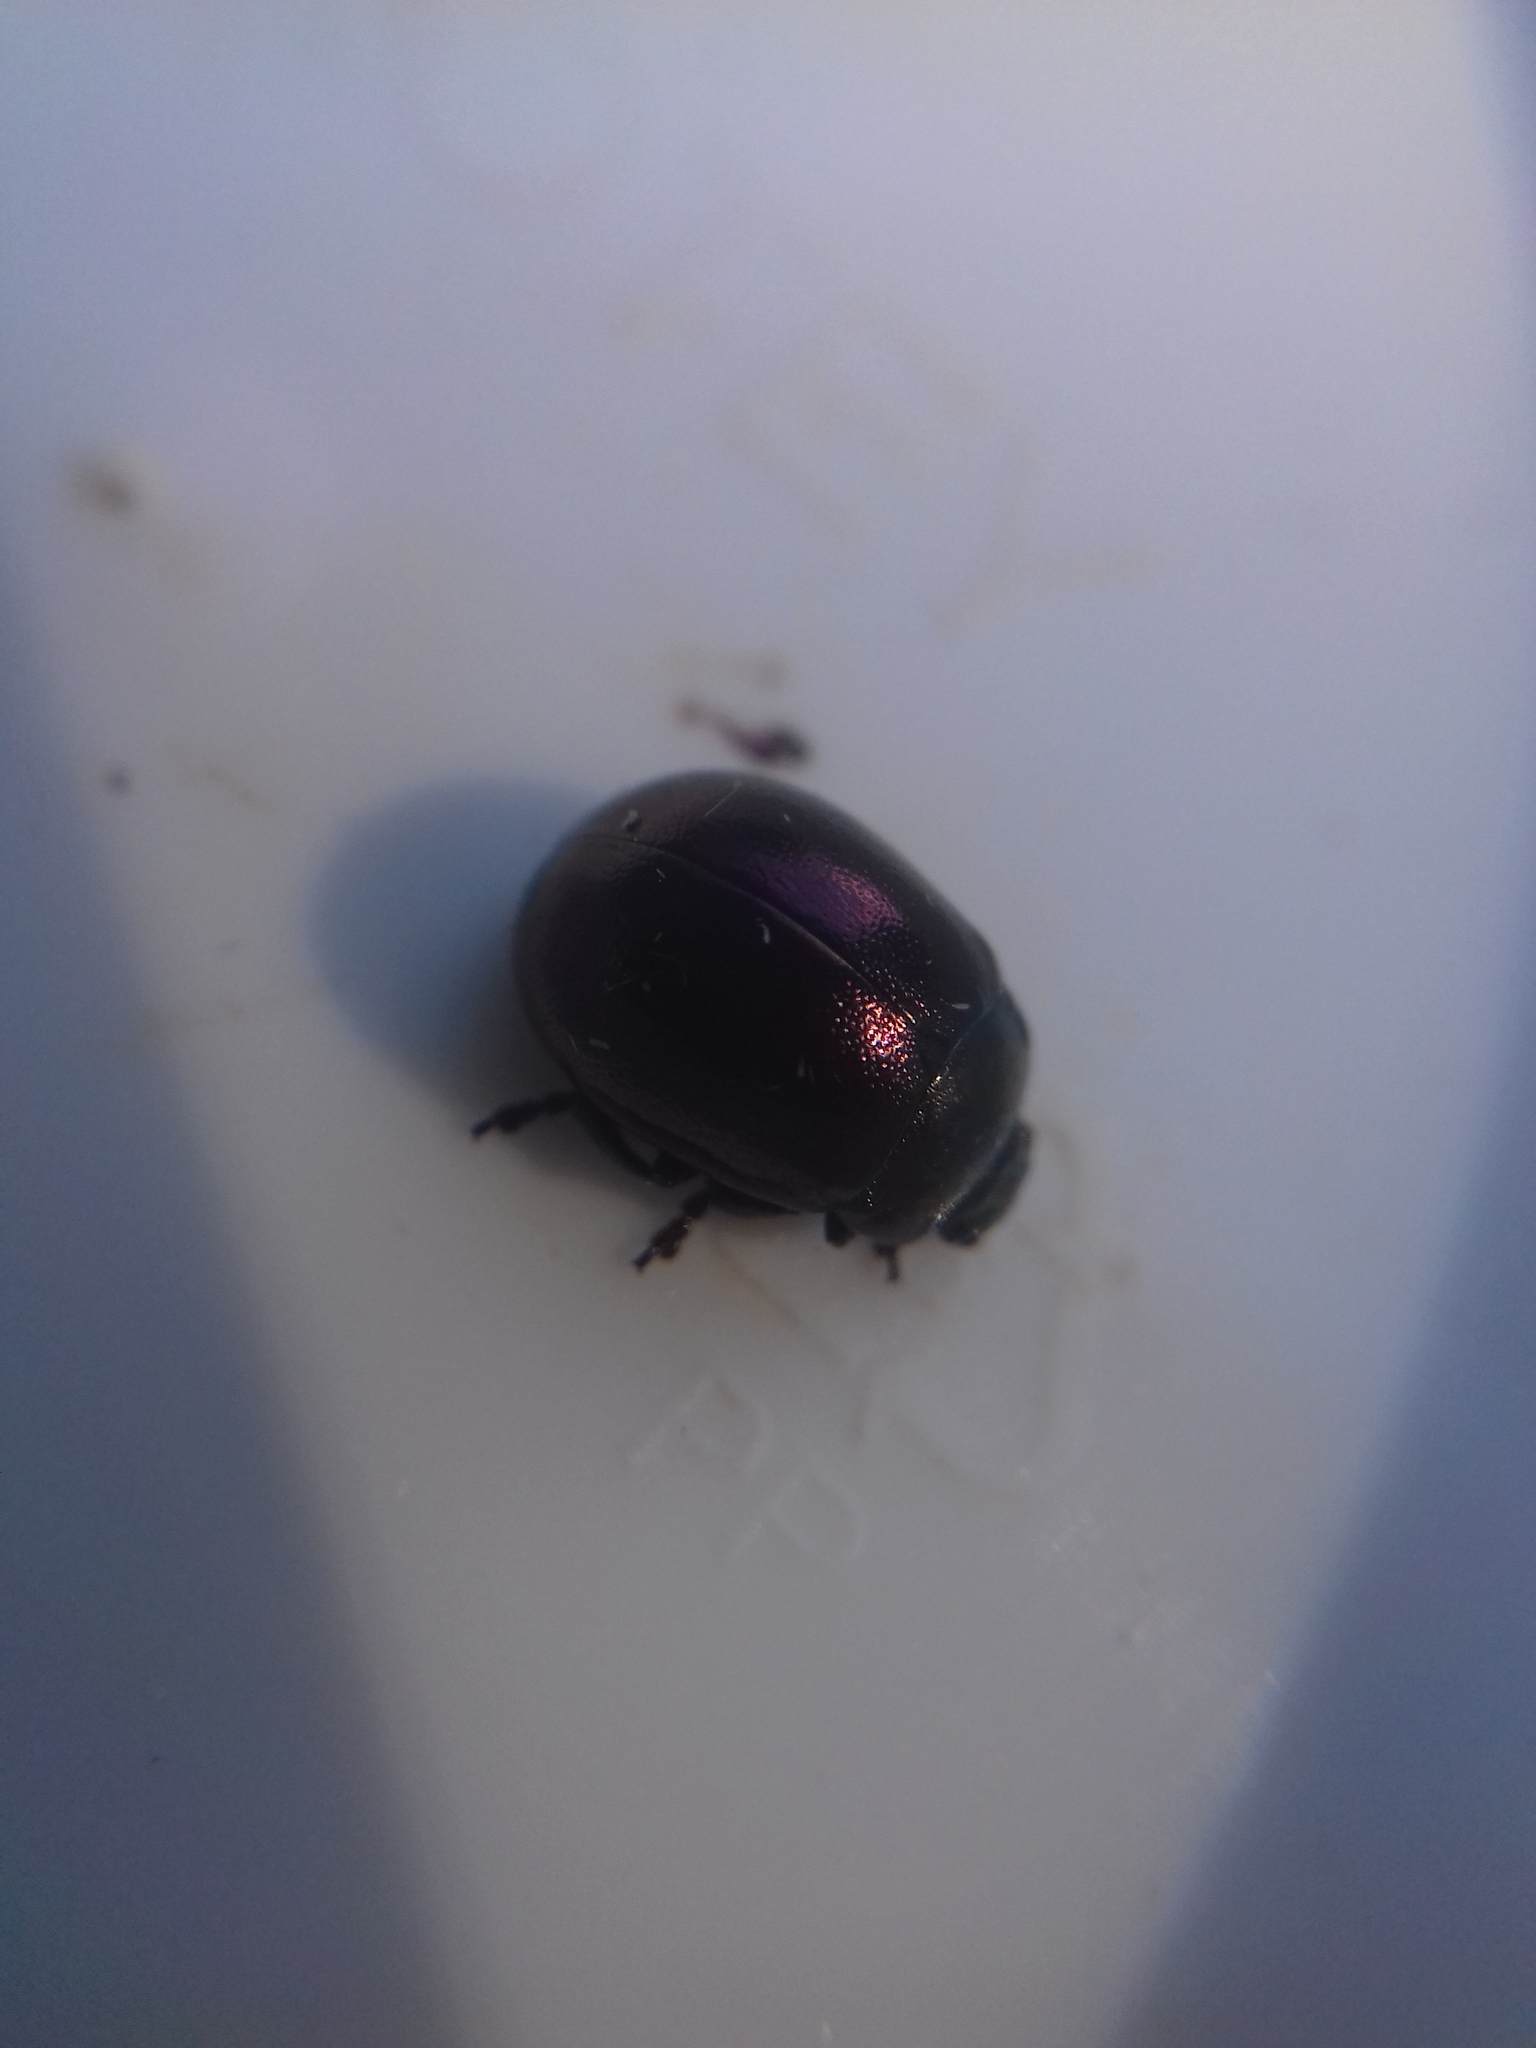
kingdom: Animalia
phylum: Arthropoda
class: Insecta
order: Coleoptera
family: Chrysomelidae
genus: Chrysolina
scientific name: Chrysolina varians
